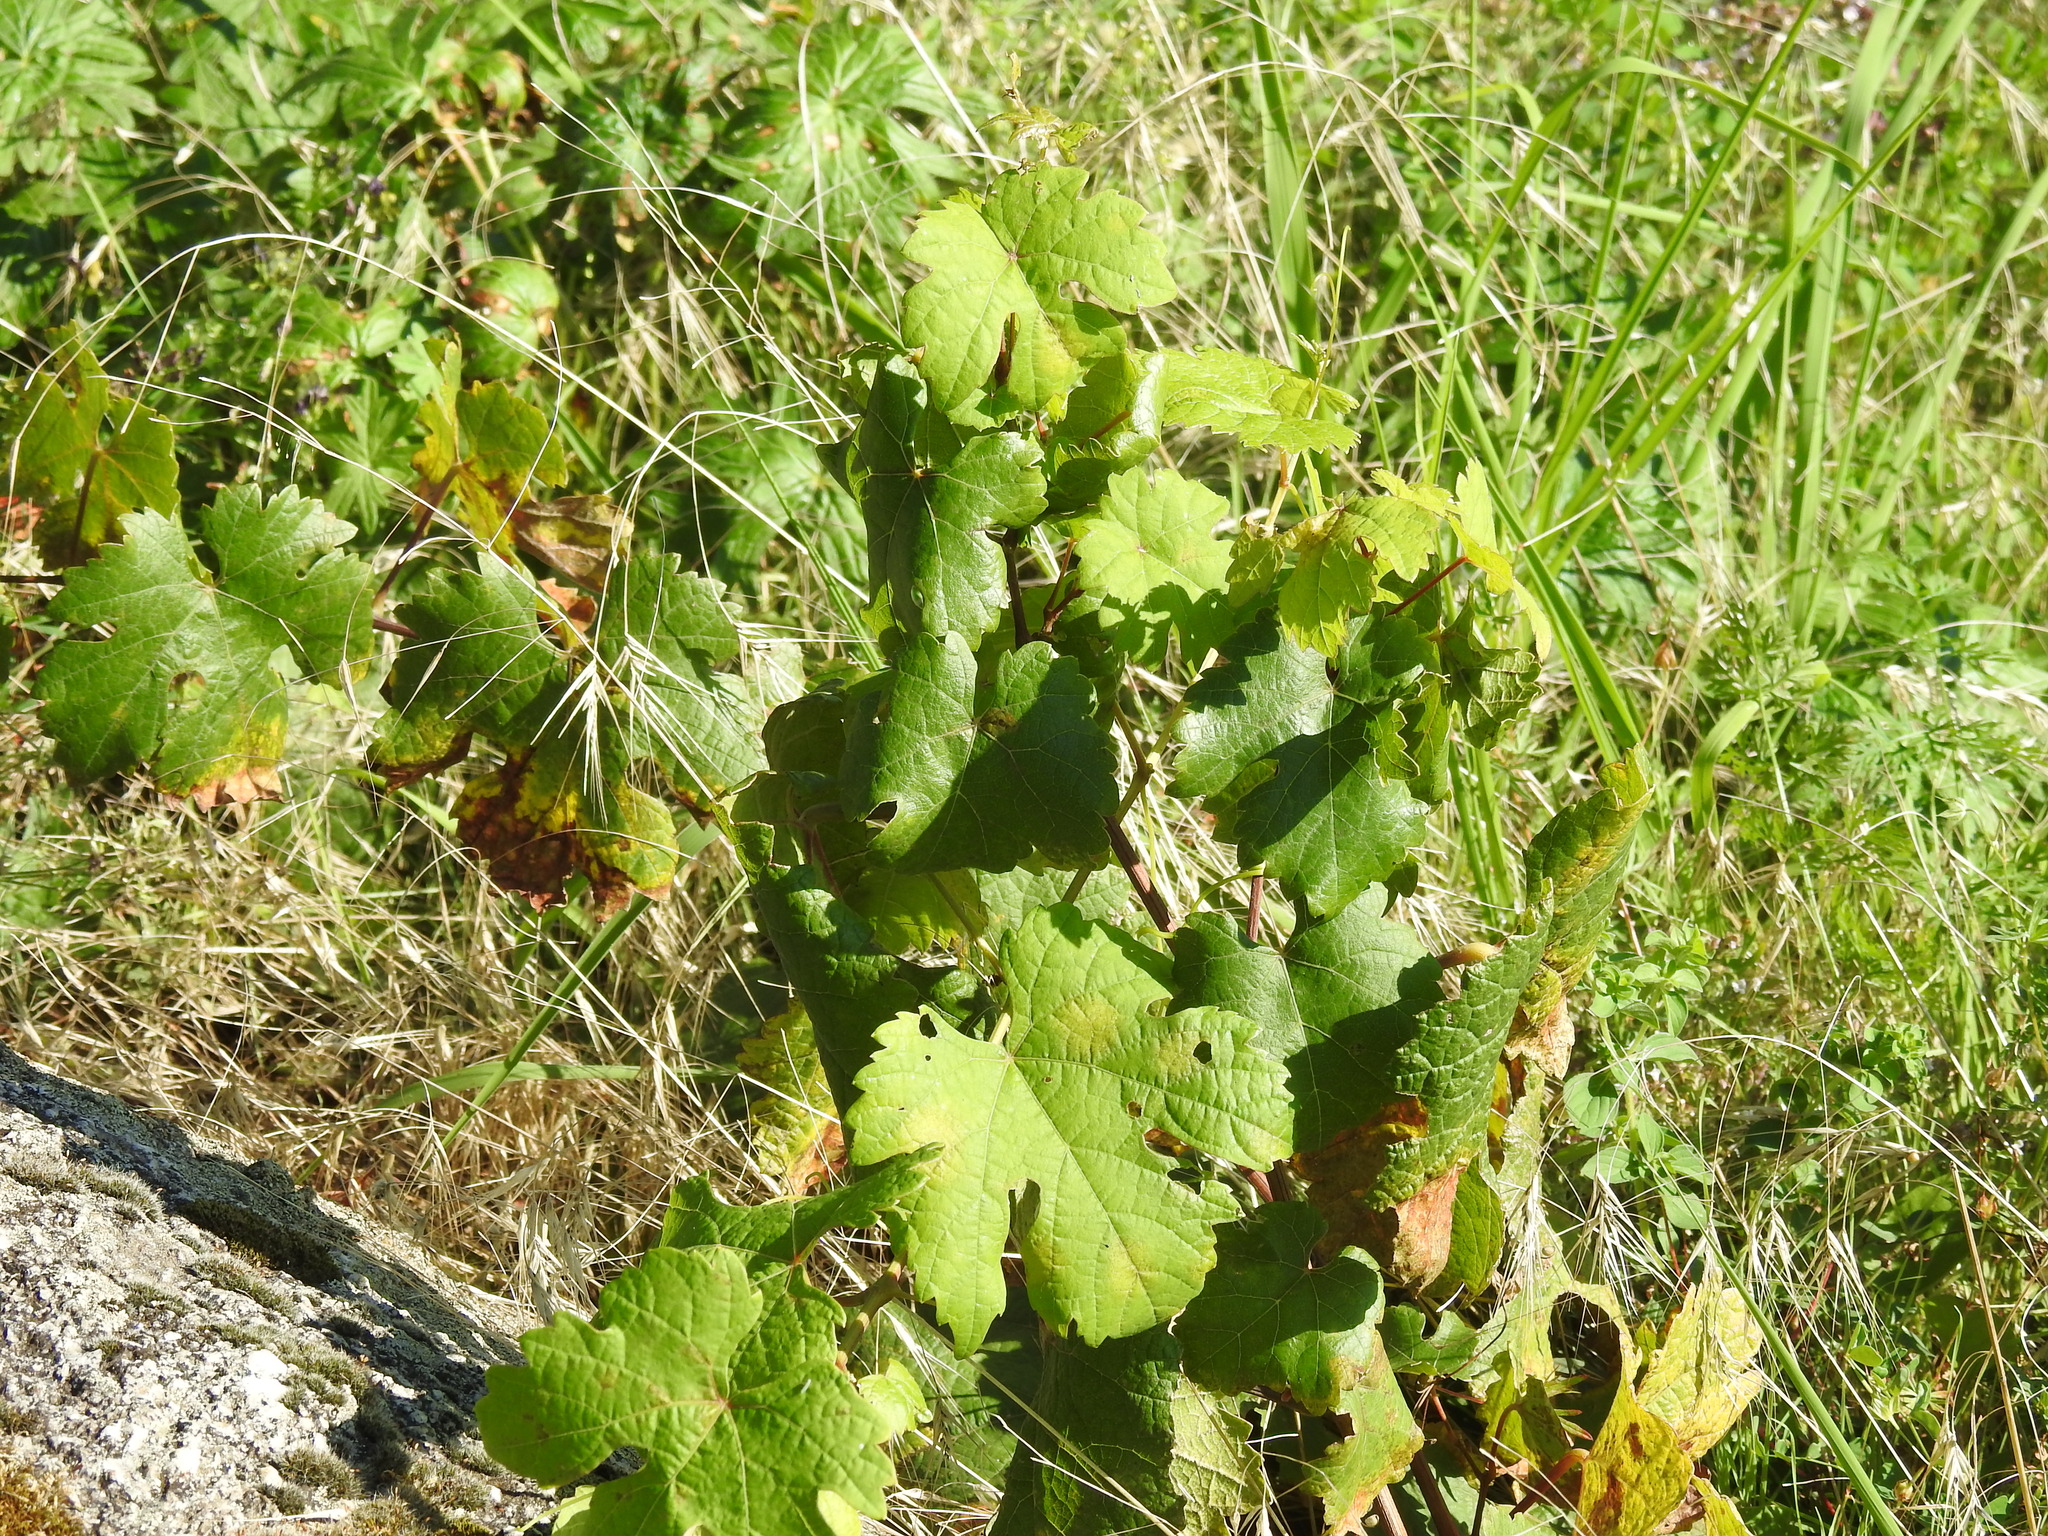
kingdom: Plantae
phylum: Tracheophyta
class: Magnoliopsida
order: Vitales
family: Vitaceae
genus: Vitis
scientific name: Vitis vinifera
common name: Grape-vine
